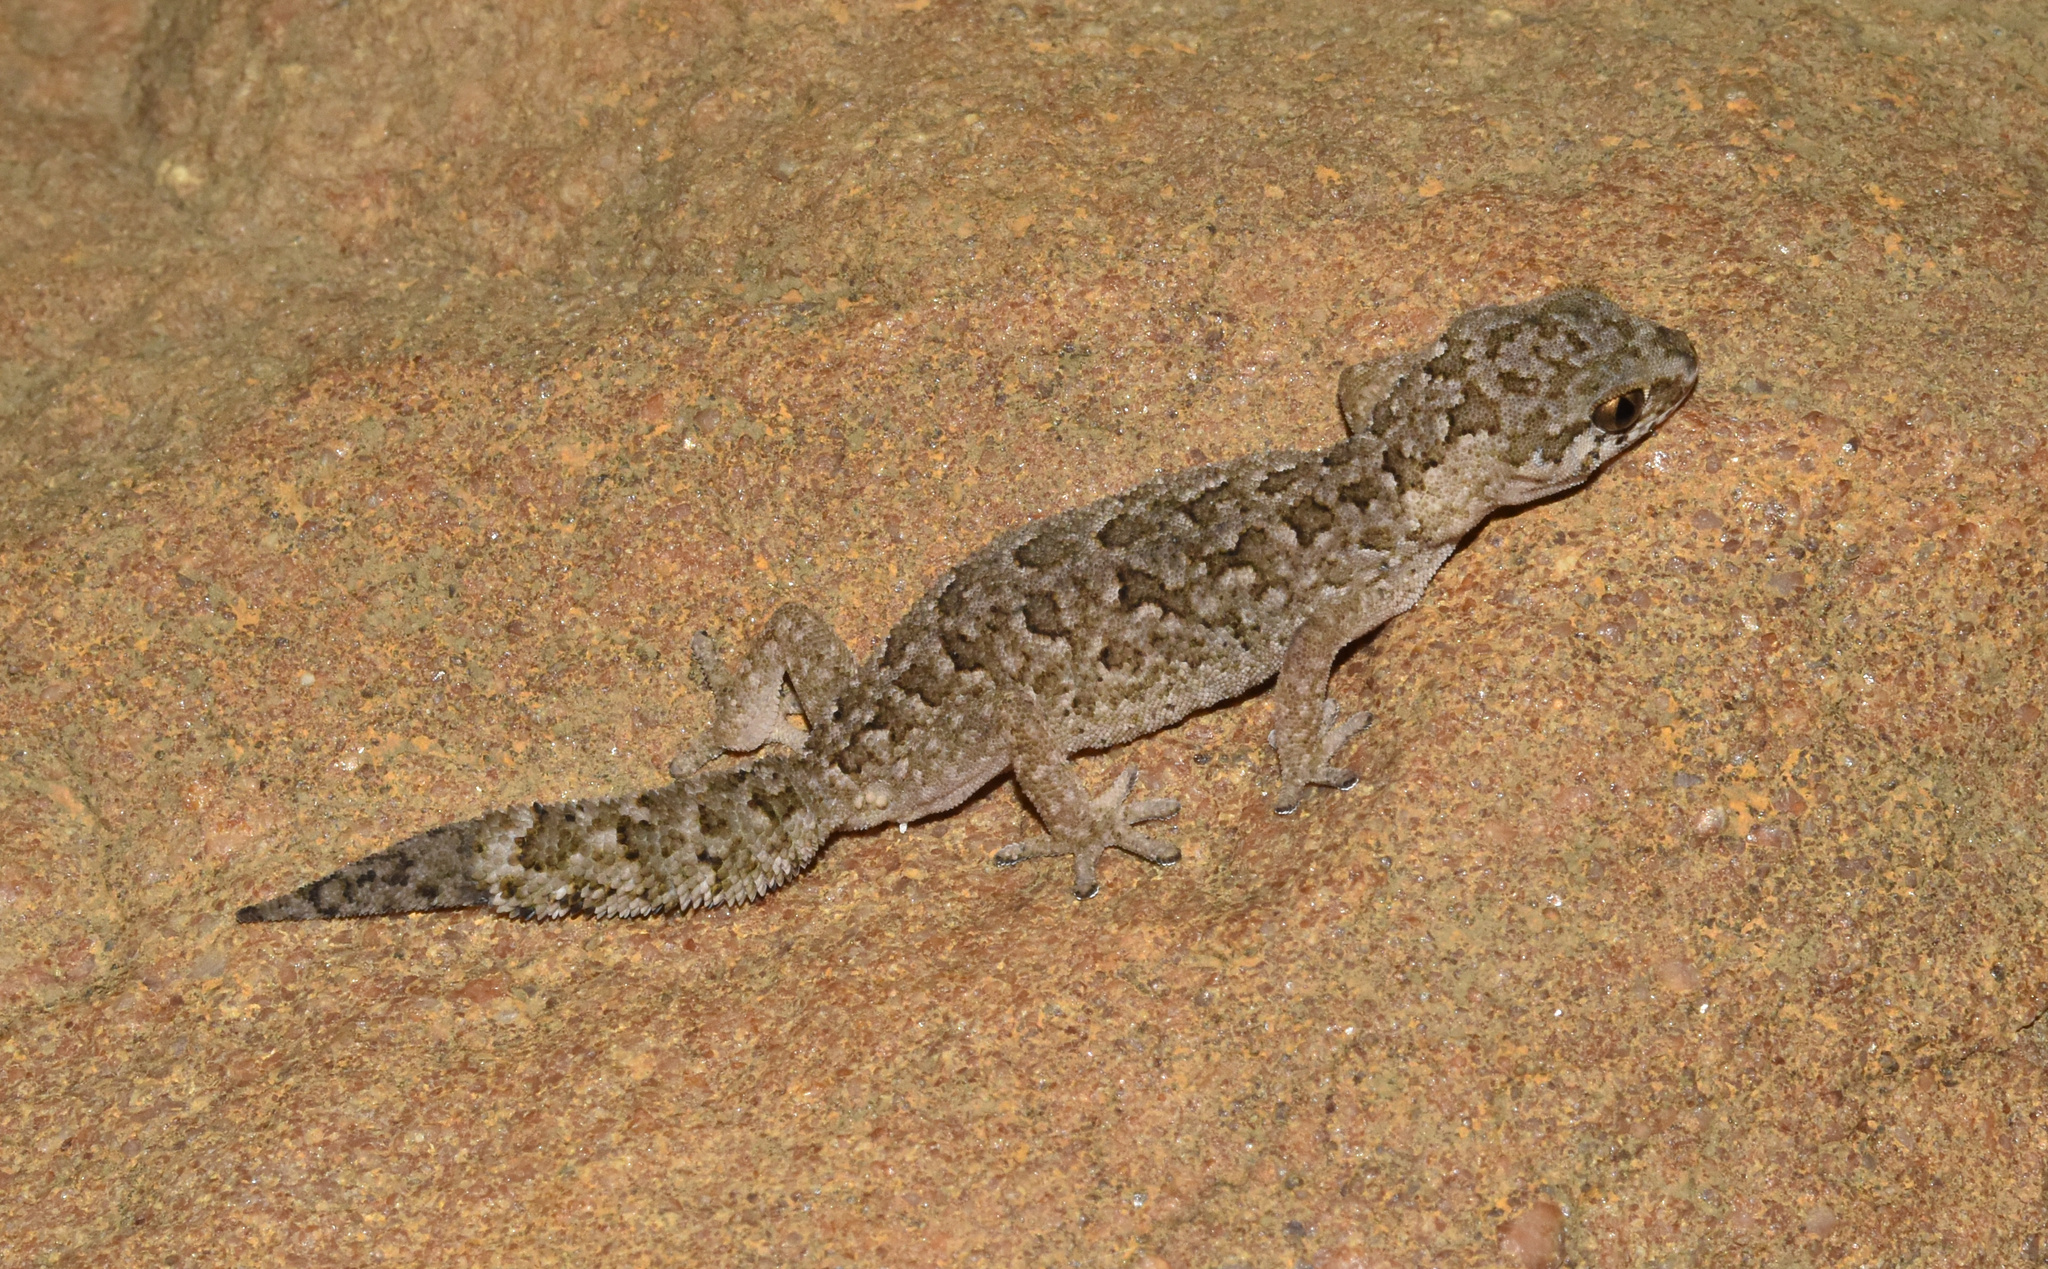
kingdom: Animalia
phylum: Chordata
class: Squamata
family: Gekkonidae
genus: Pachydactylus
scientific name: Pachydactylus maculatus
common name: Spotted thick-toed gecko
